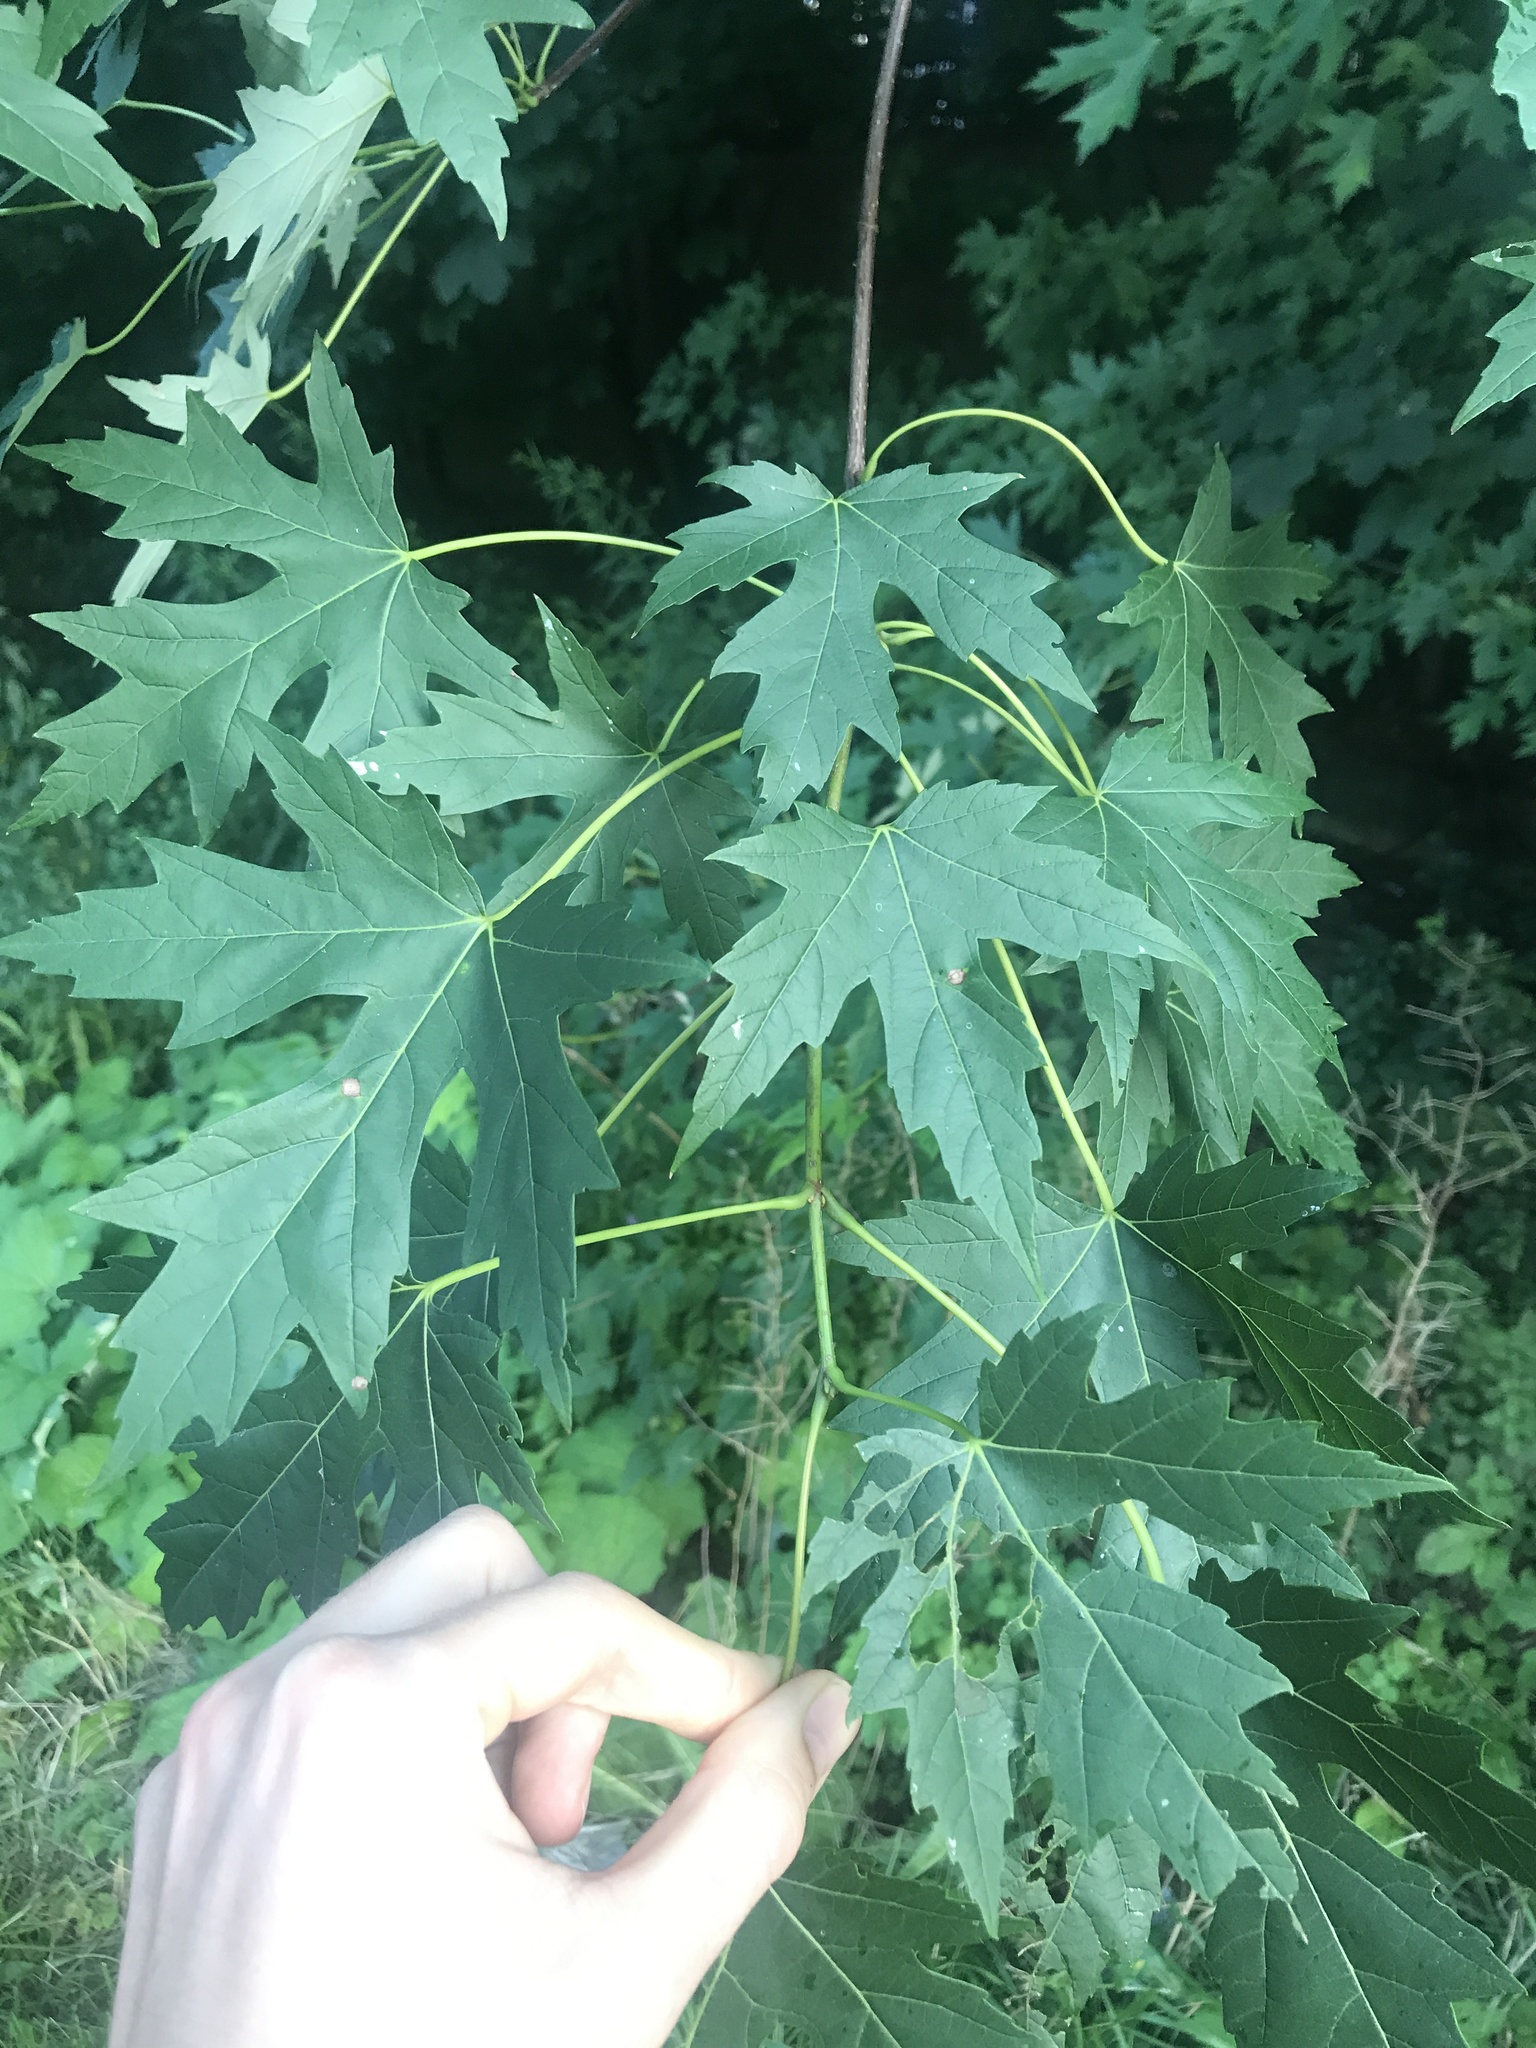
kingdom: Plantae
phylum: Tracheophyta
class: Magnoliopsida
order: Sapindales
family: Sapindaceae
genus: Acer
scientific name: Acer saccharinum
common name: Silver maple
